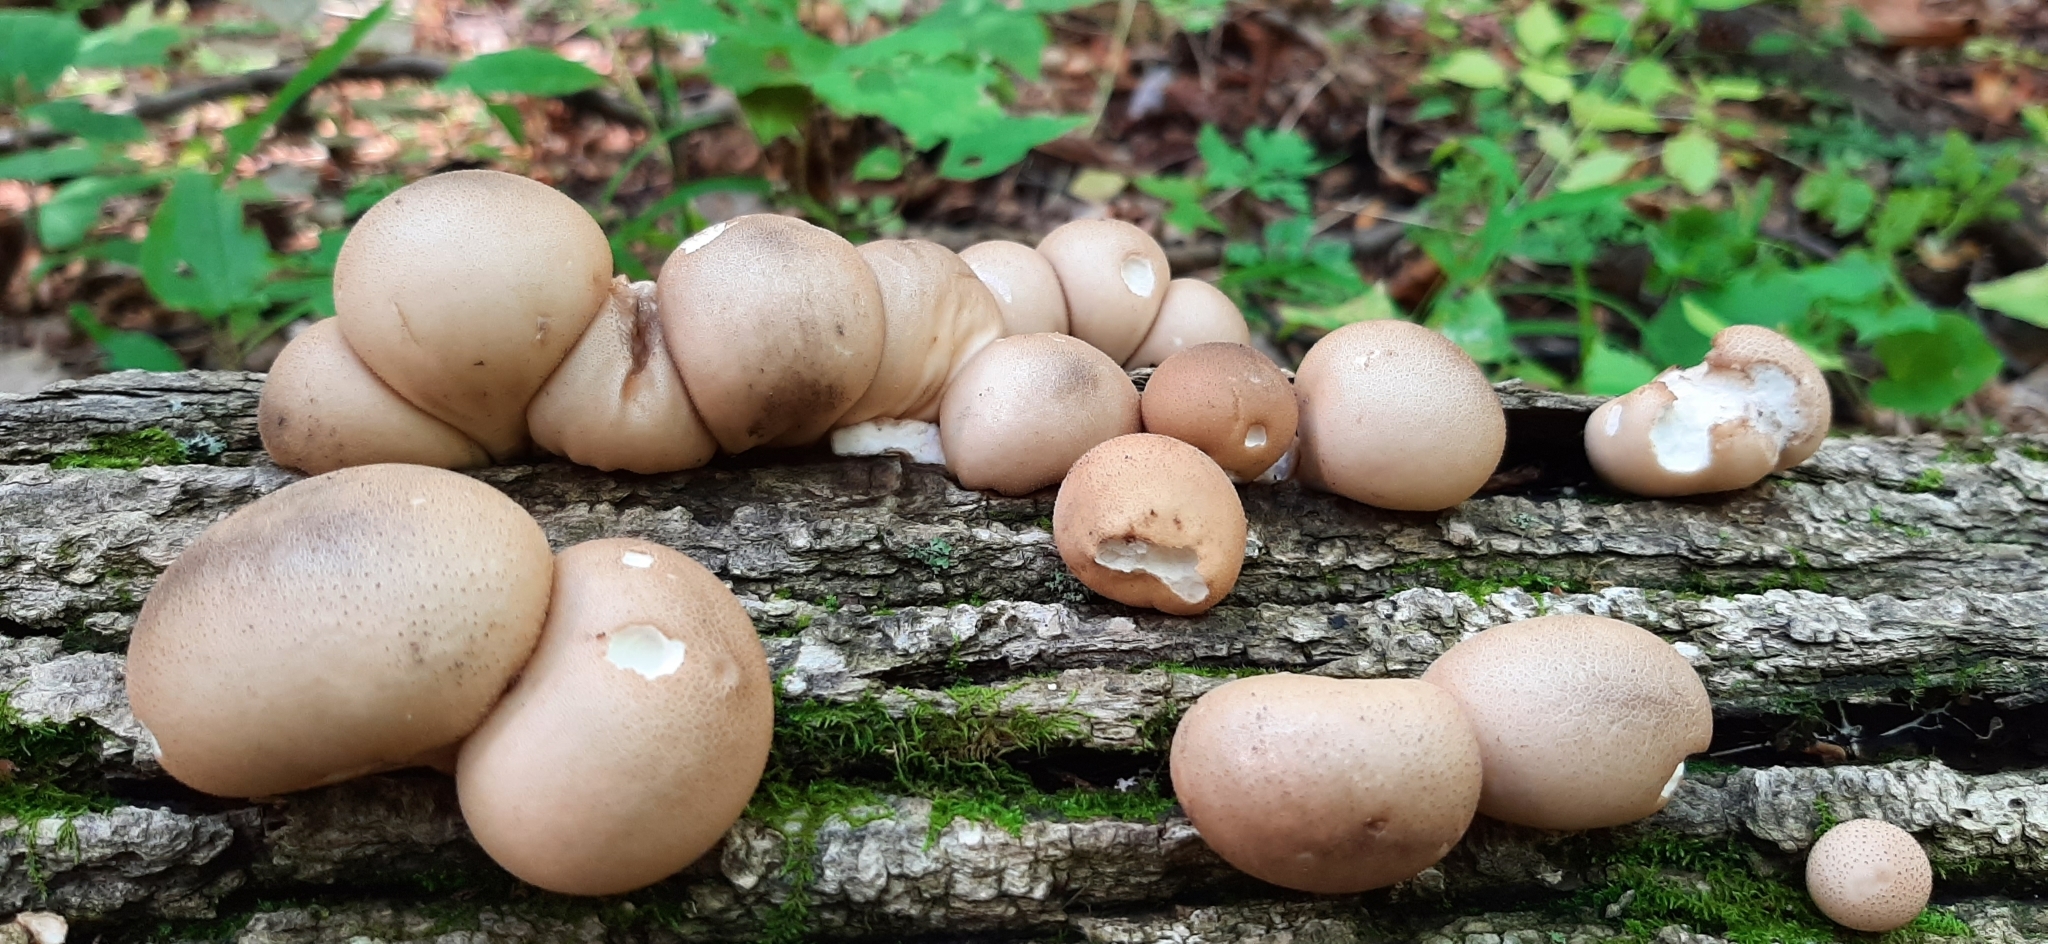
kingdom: Fungi
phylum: Basidiomycota
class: Agaricomycetes
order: Agaricales
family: Lycoperdaceae
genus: Apioperdon
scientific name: Apioperdon pyriforme
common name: Pear-shaped puffball
